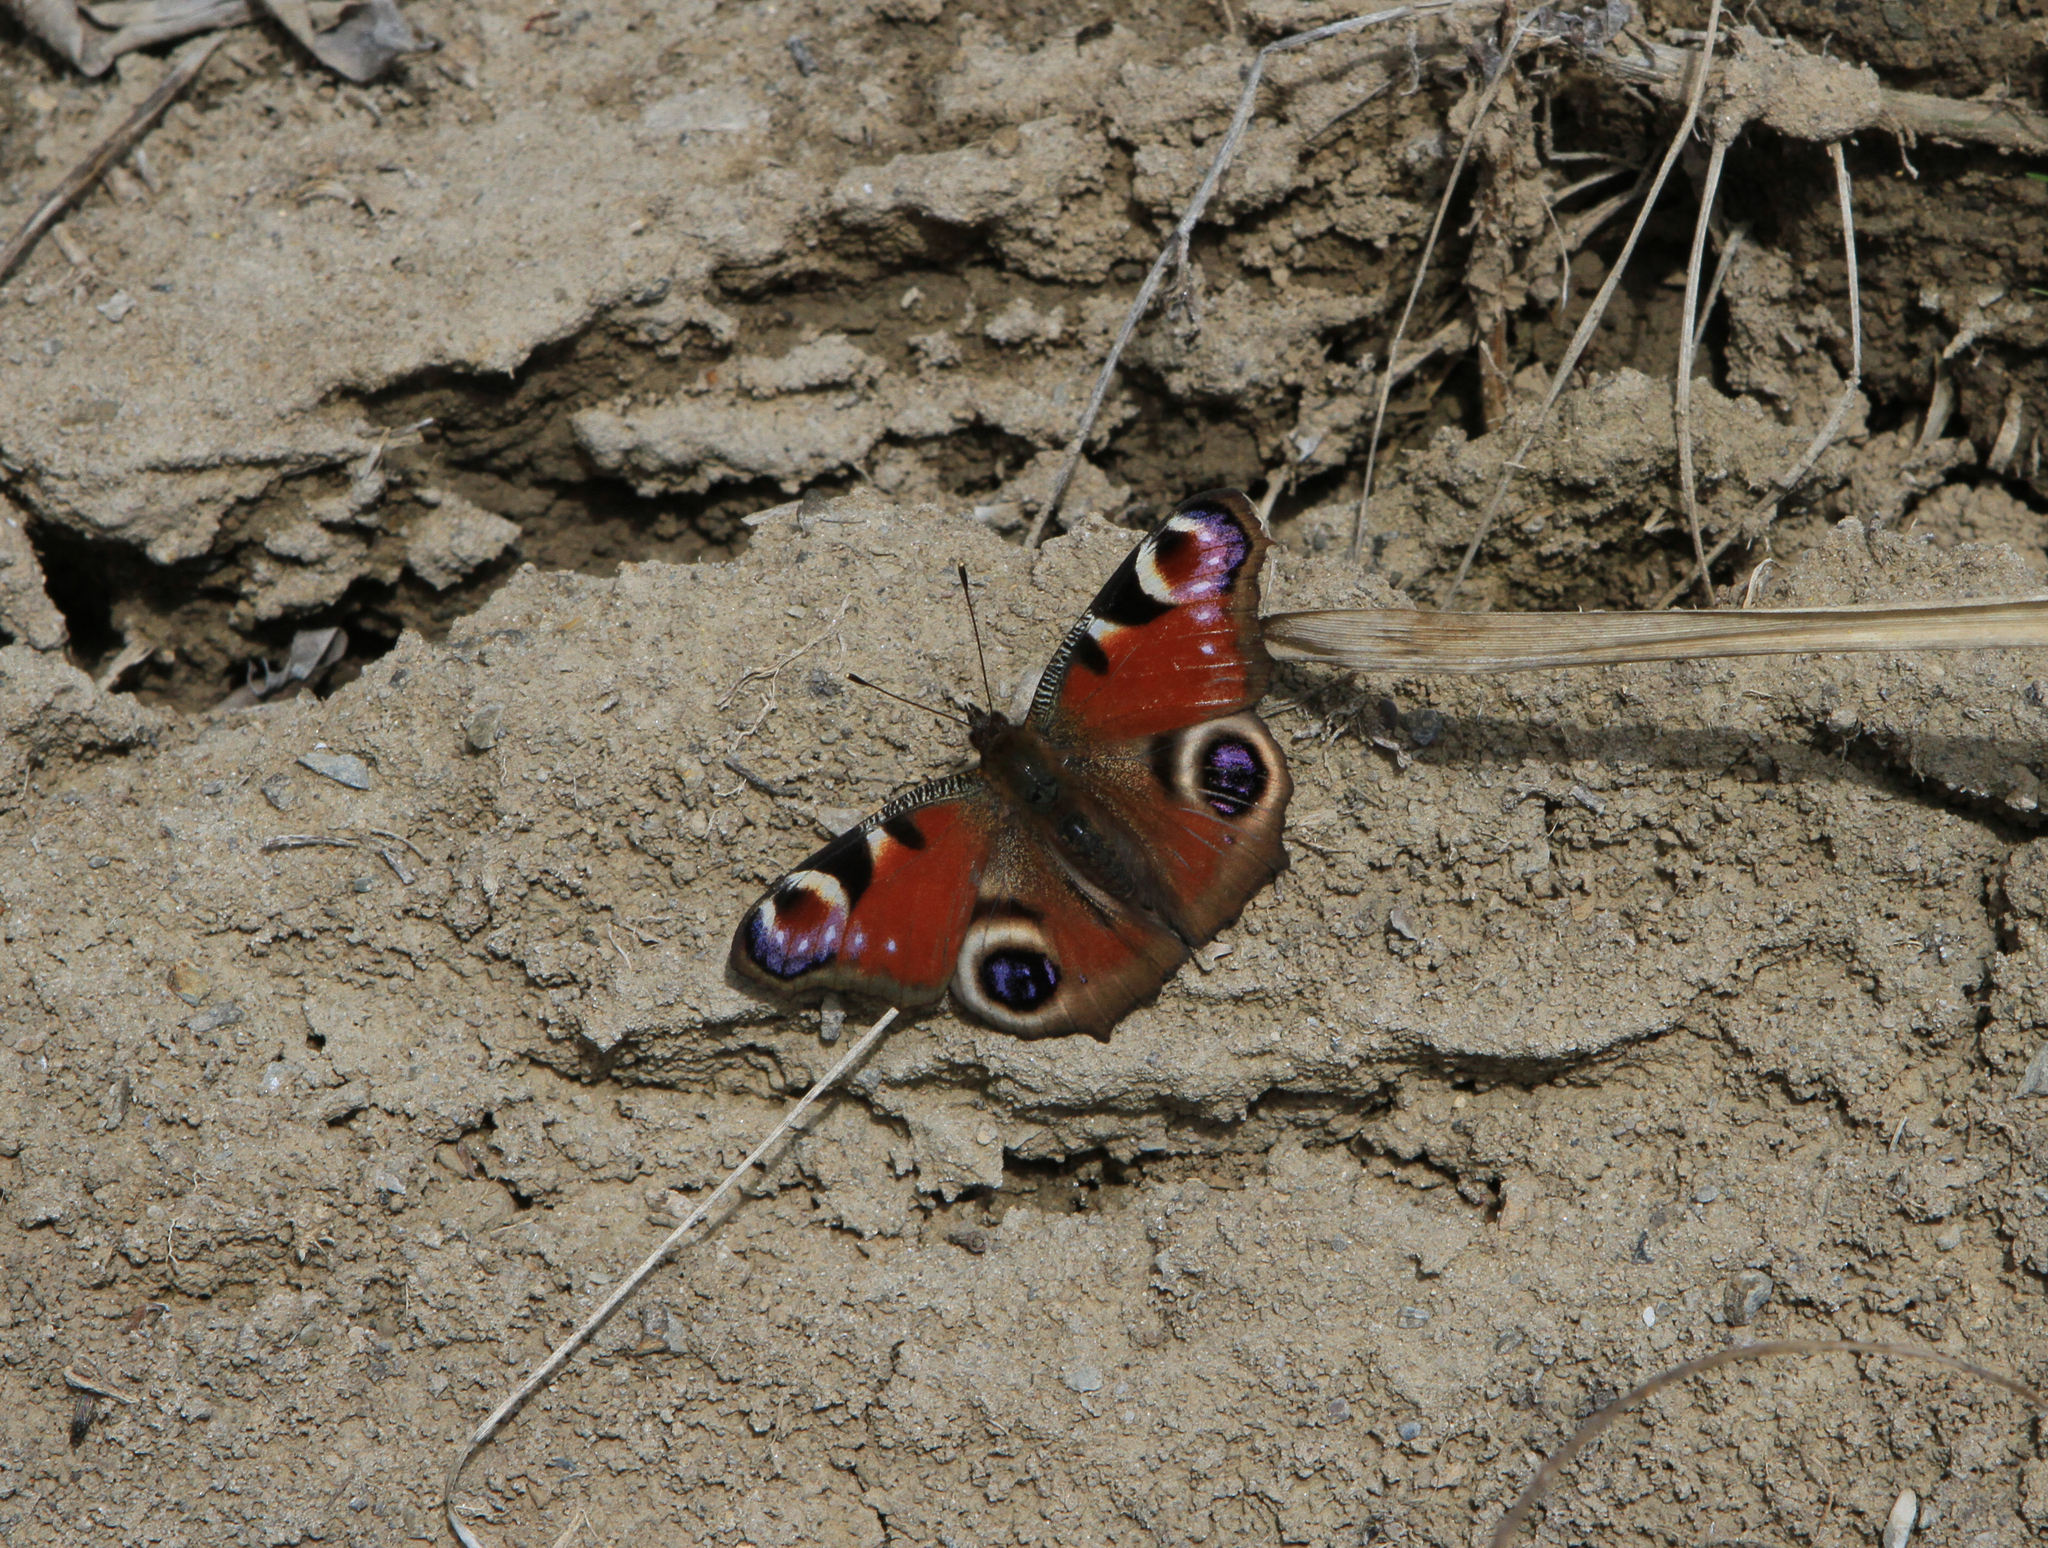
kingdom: Animalia
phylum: Arthropoda
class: Insecta
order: Lepidoptera
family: Nymphalidae
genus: Aglais
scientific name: Aglais io
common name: Peacock
